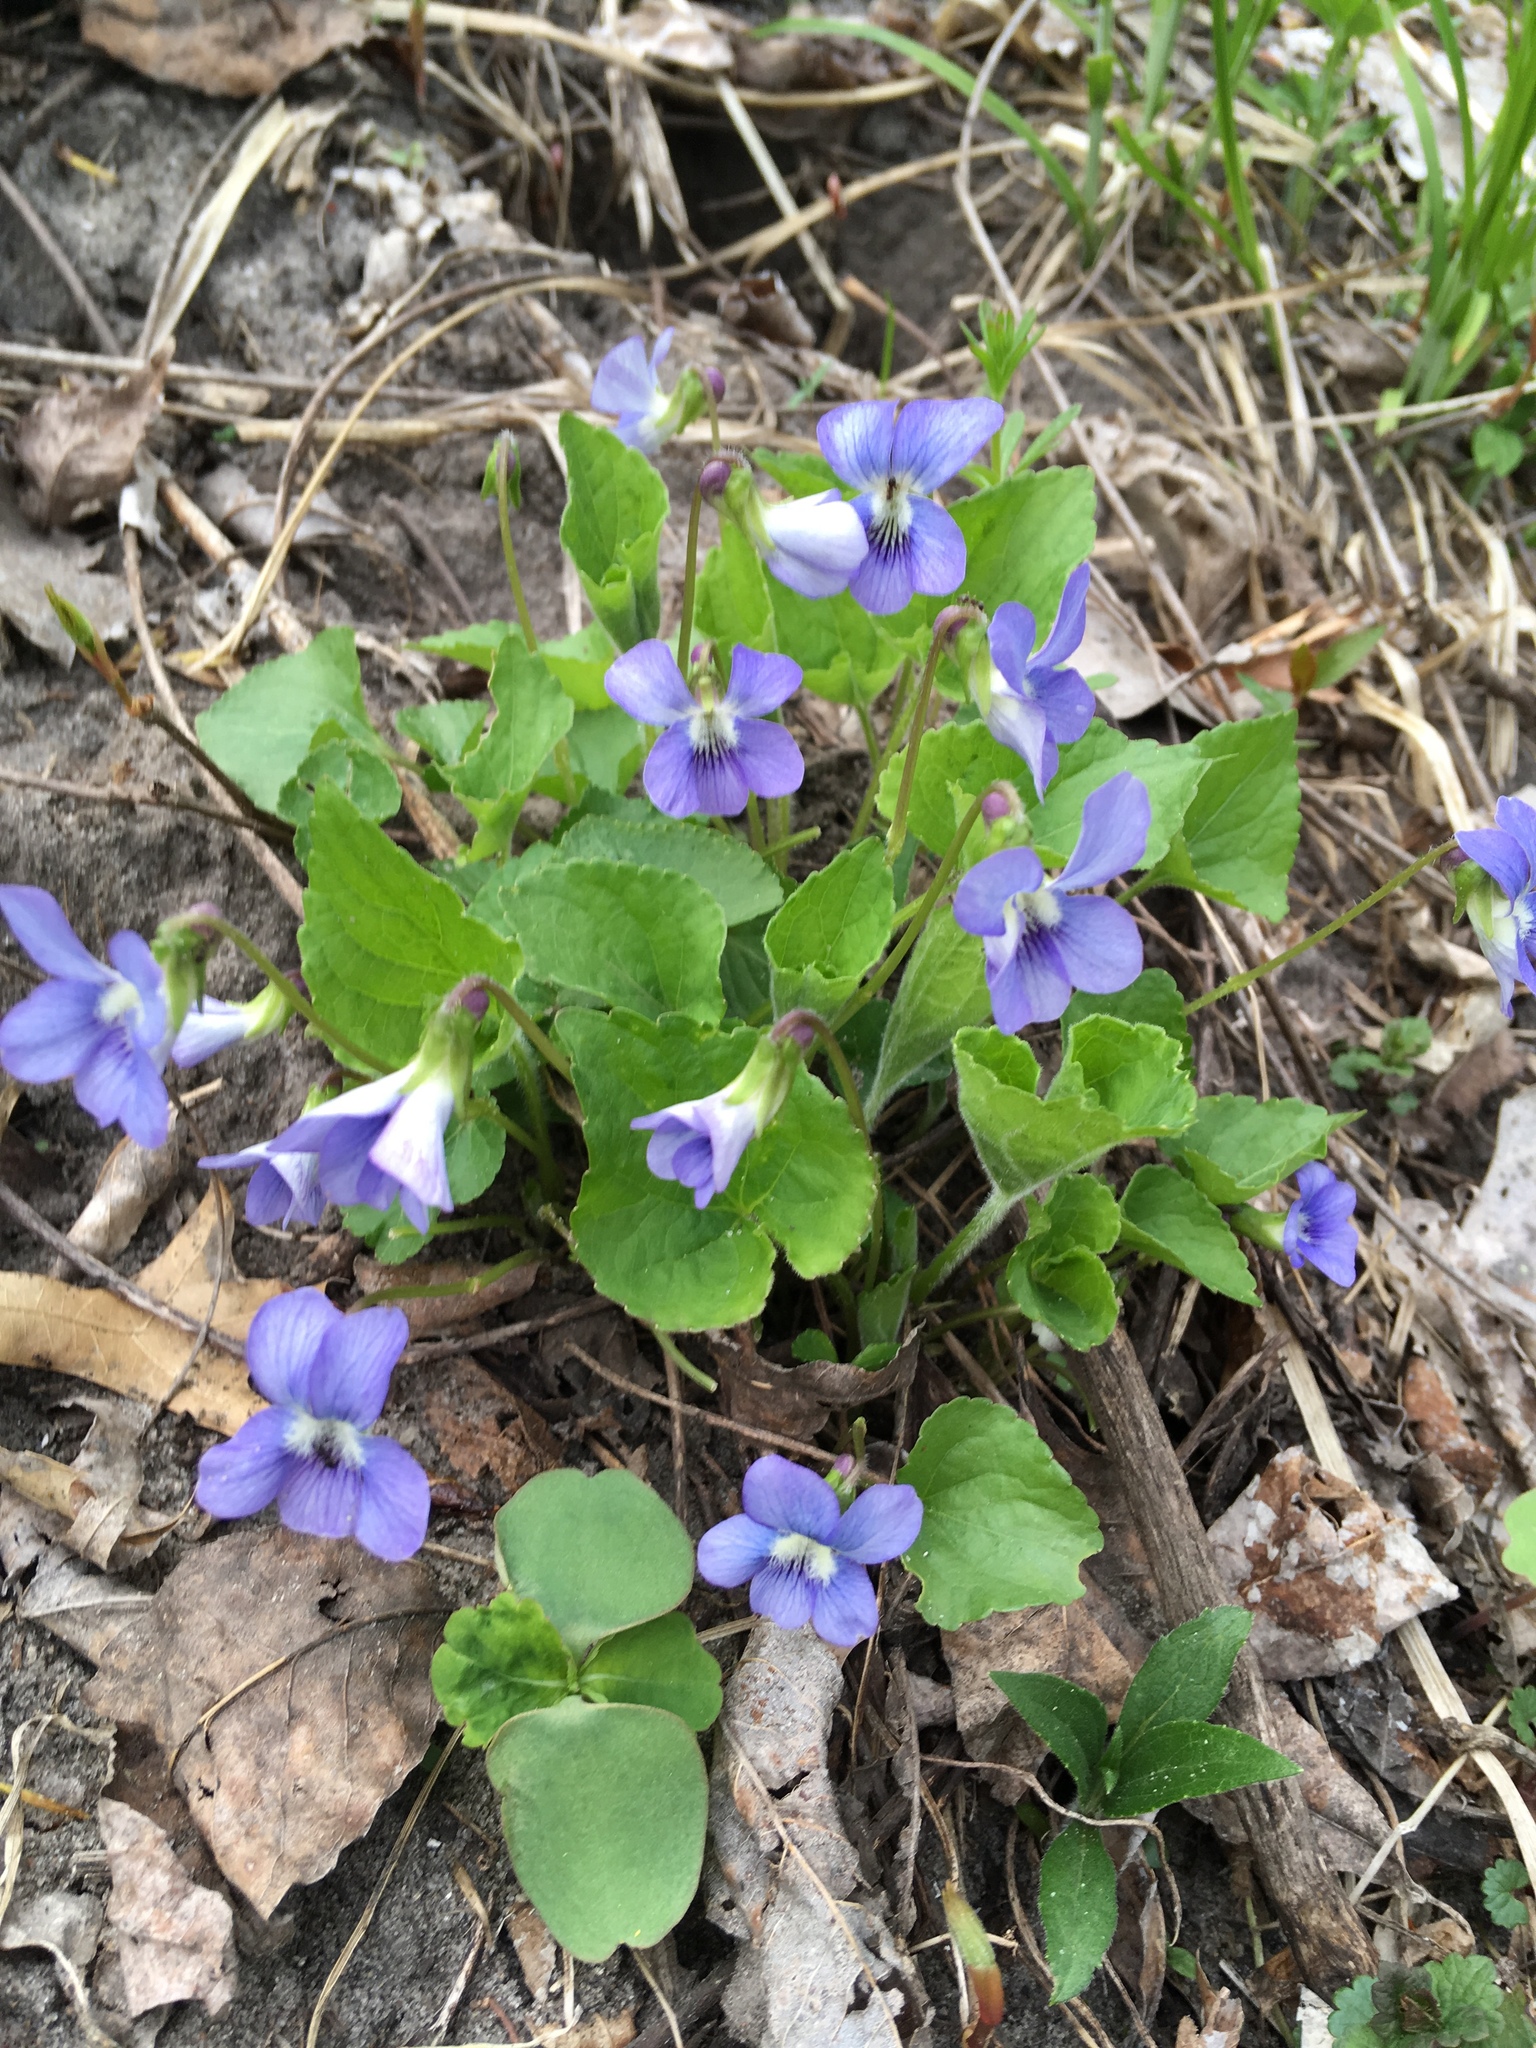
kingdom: Plantae
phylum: Tracheophyta
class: Magnoliopsida
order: Malpighiales
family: Violaceae
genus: Viola
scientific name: Viola sororia
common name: Dooryard violet
